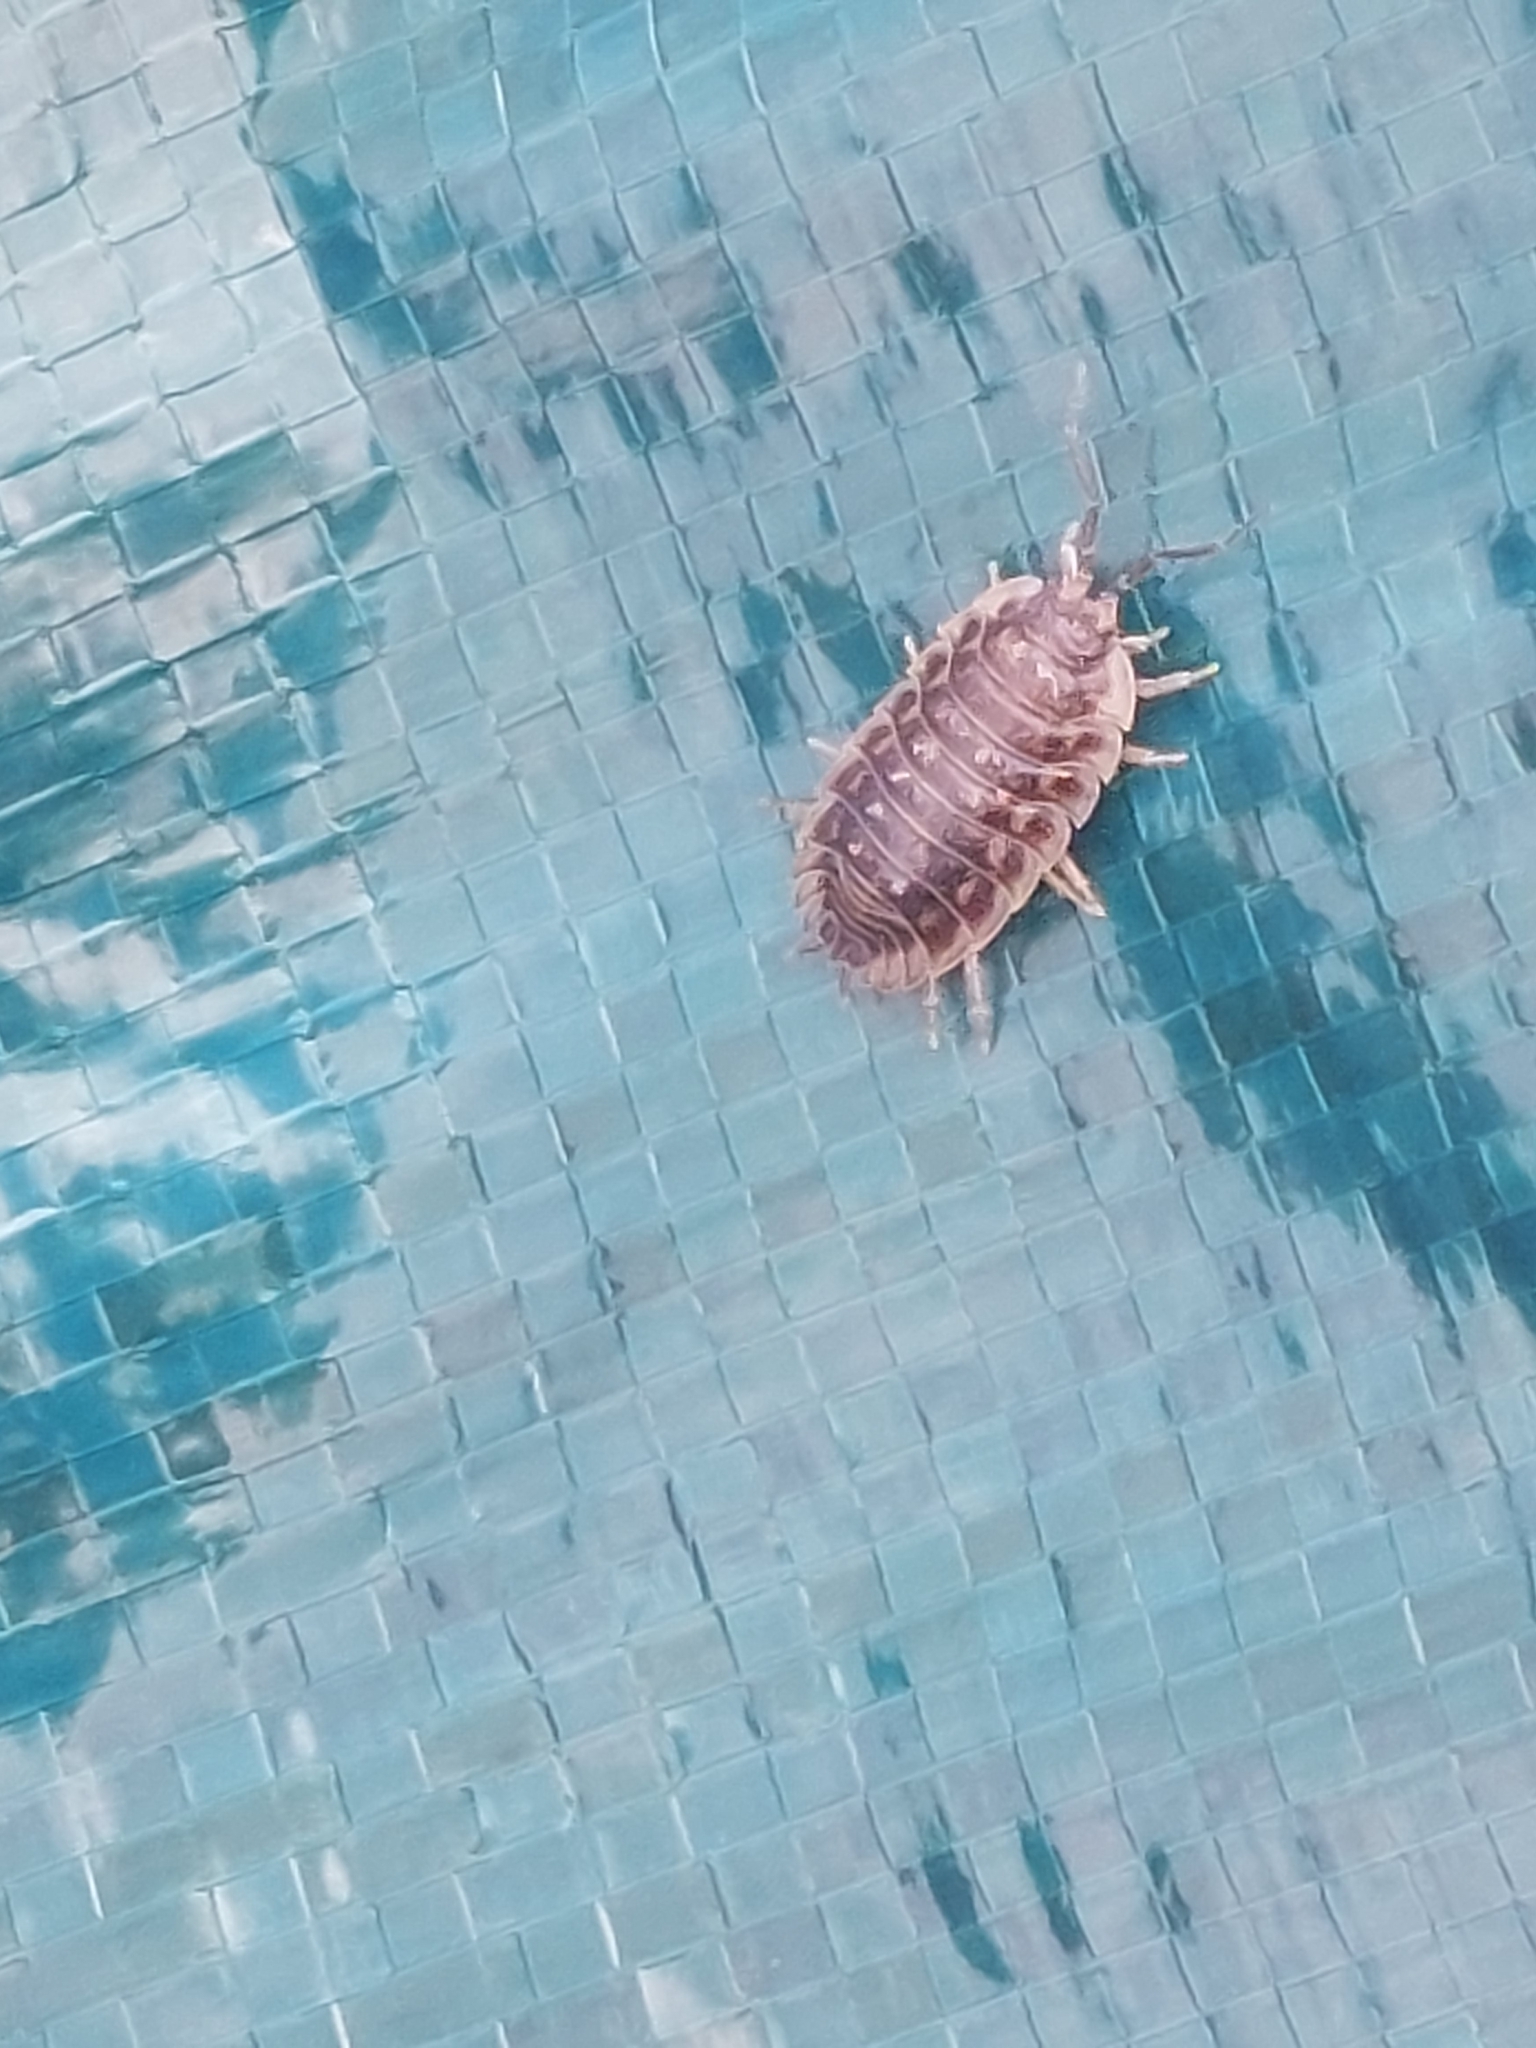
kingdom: Animalia
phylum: Arthropoda
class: Malacostraca
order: Isopoda
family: Oniscidae
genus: Oniscus
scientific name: Oniscus asellus
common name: Common shiny woodlouse
